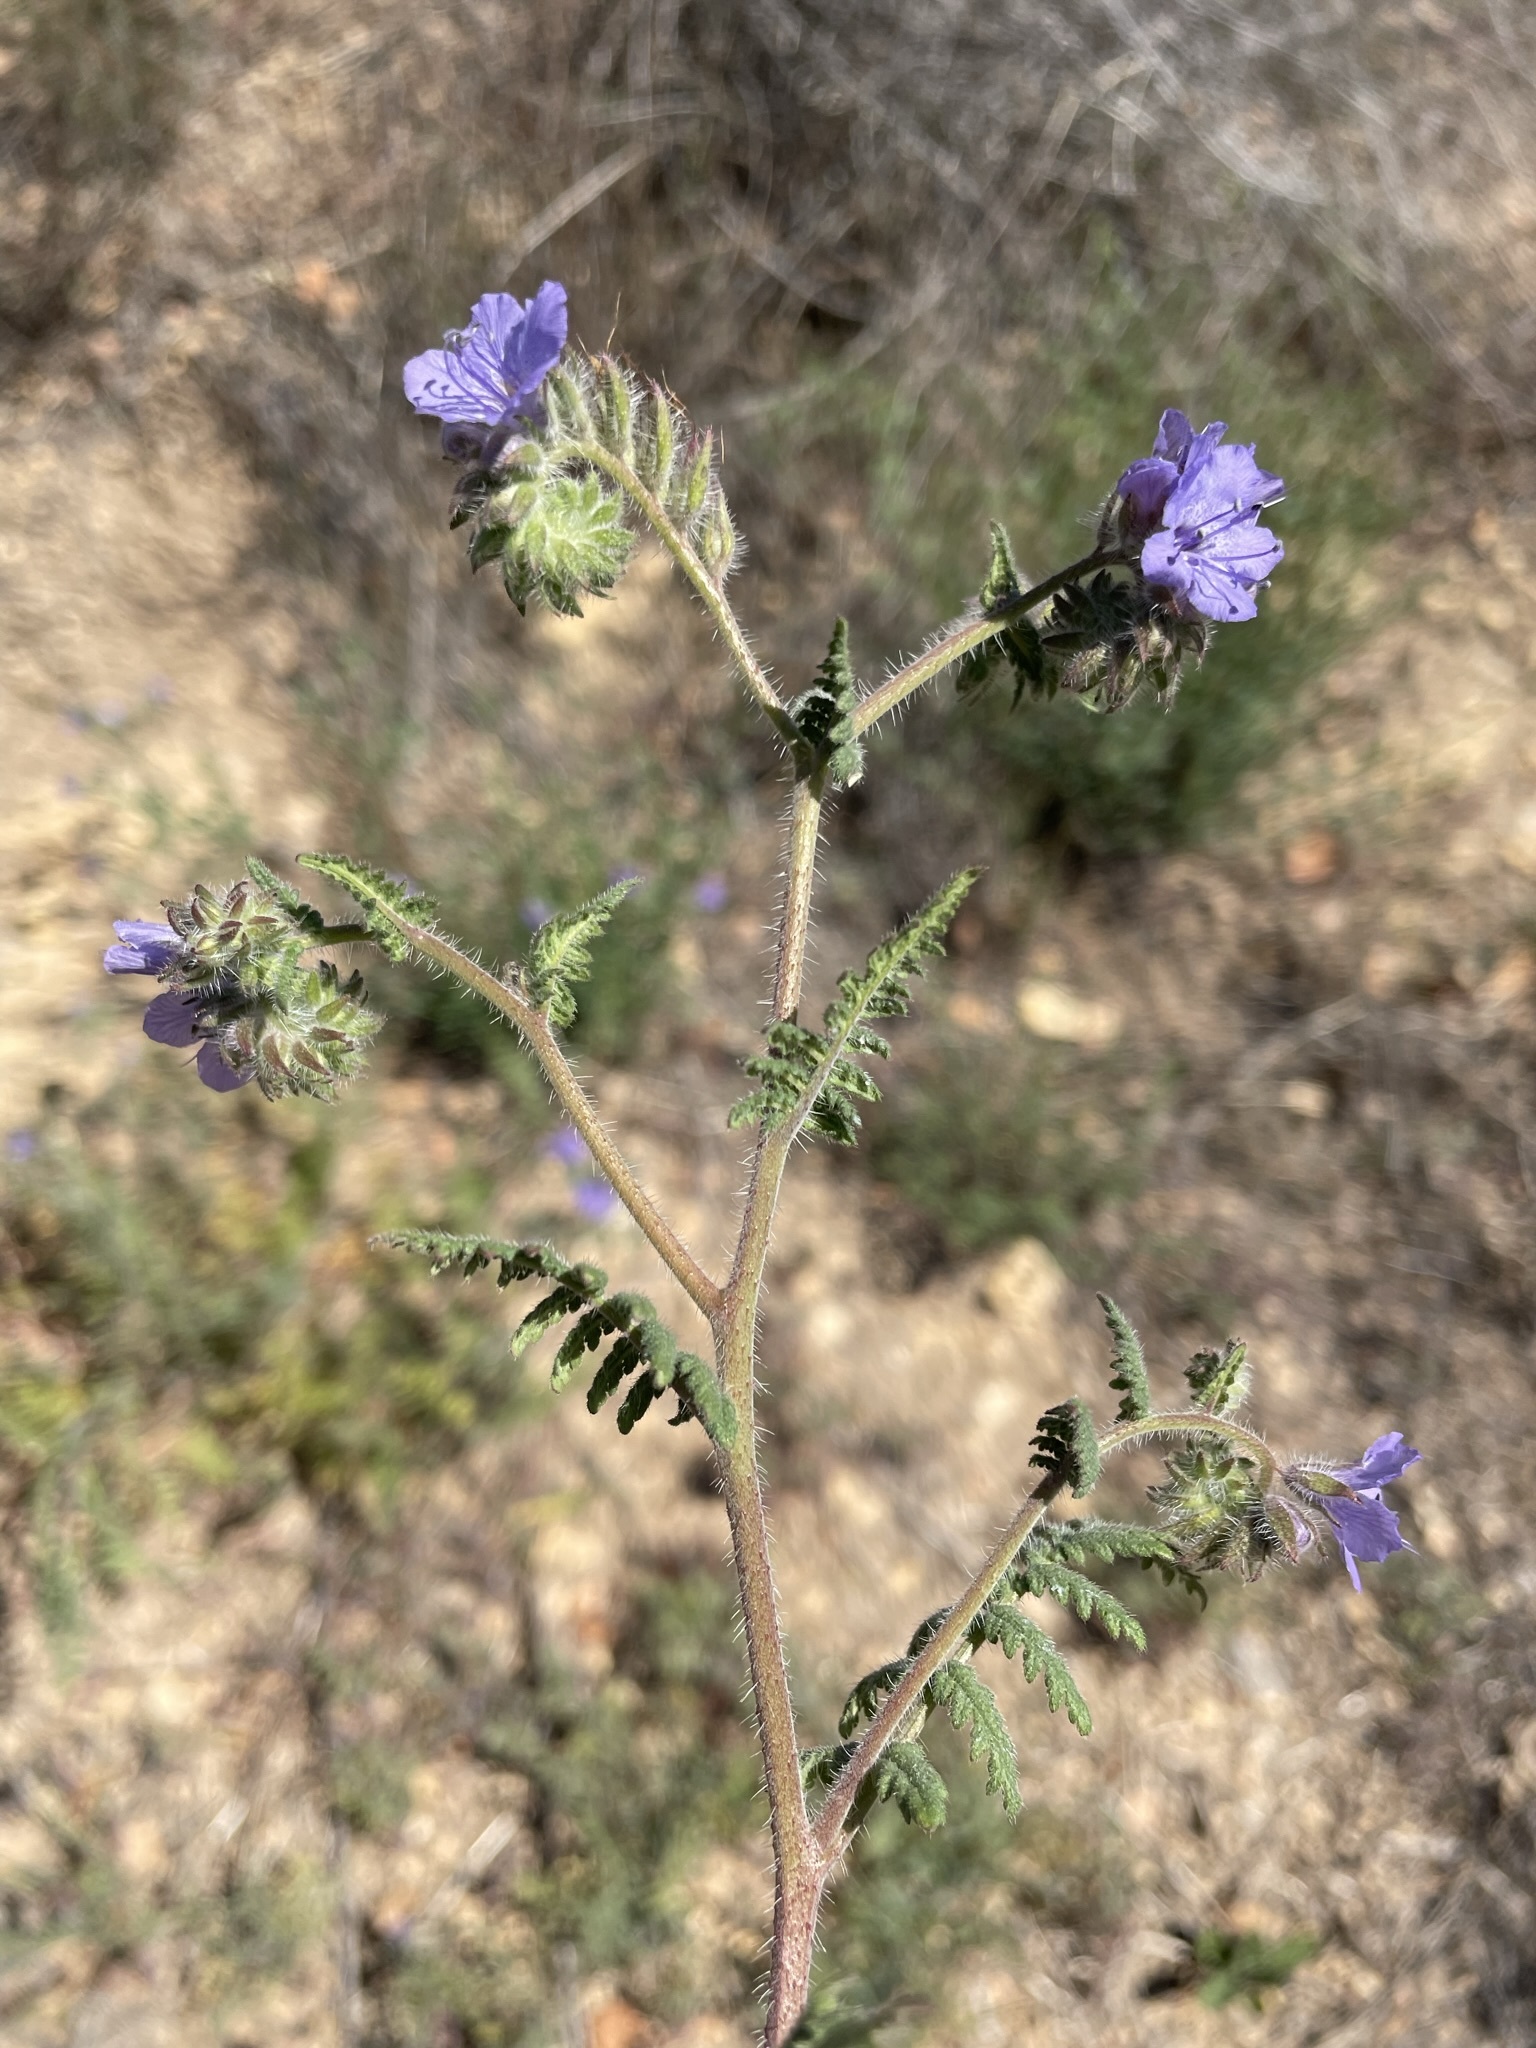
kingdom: Plantae
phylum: Tracheophyta
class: Magnoliopsida
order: Boraginales
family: Hydrophyllaceae
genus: Phacelia
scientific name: Phacelia distans
